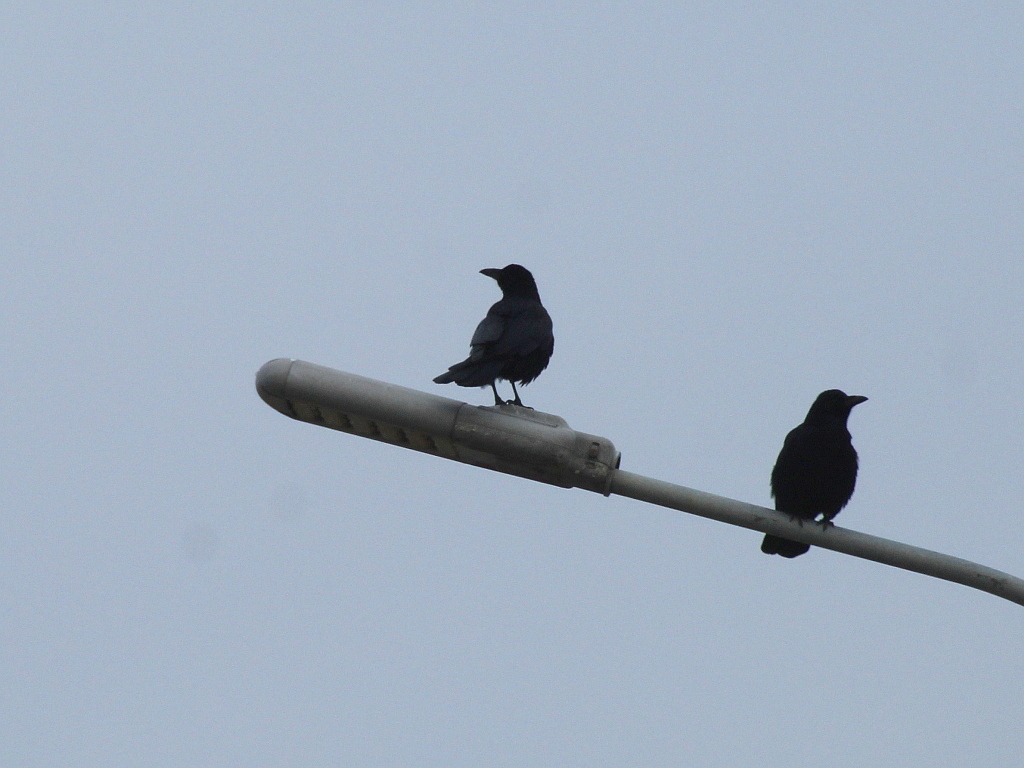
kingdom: Animalia
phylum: Chordata
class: Aves
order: Passeriformes
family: Corvidae
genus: Corvus
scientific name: Corvus corone
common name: Carrion crow
